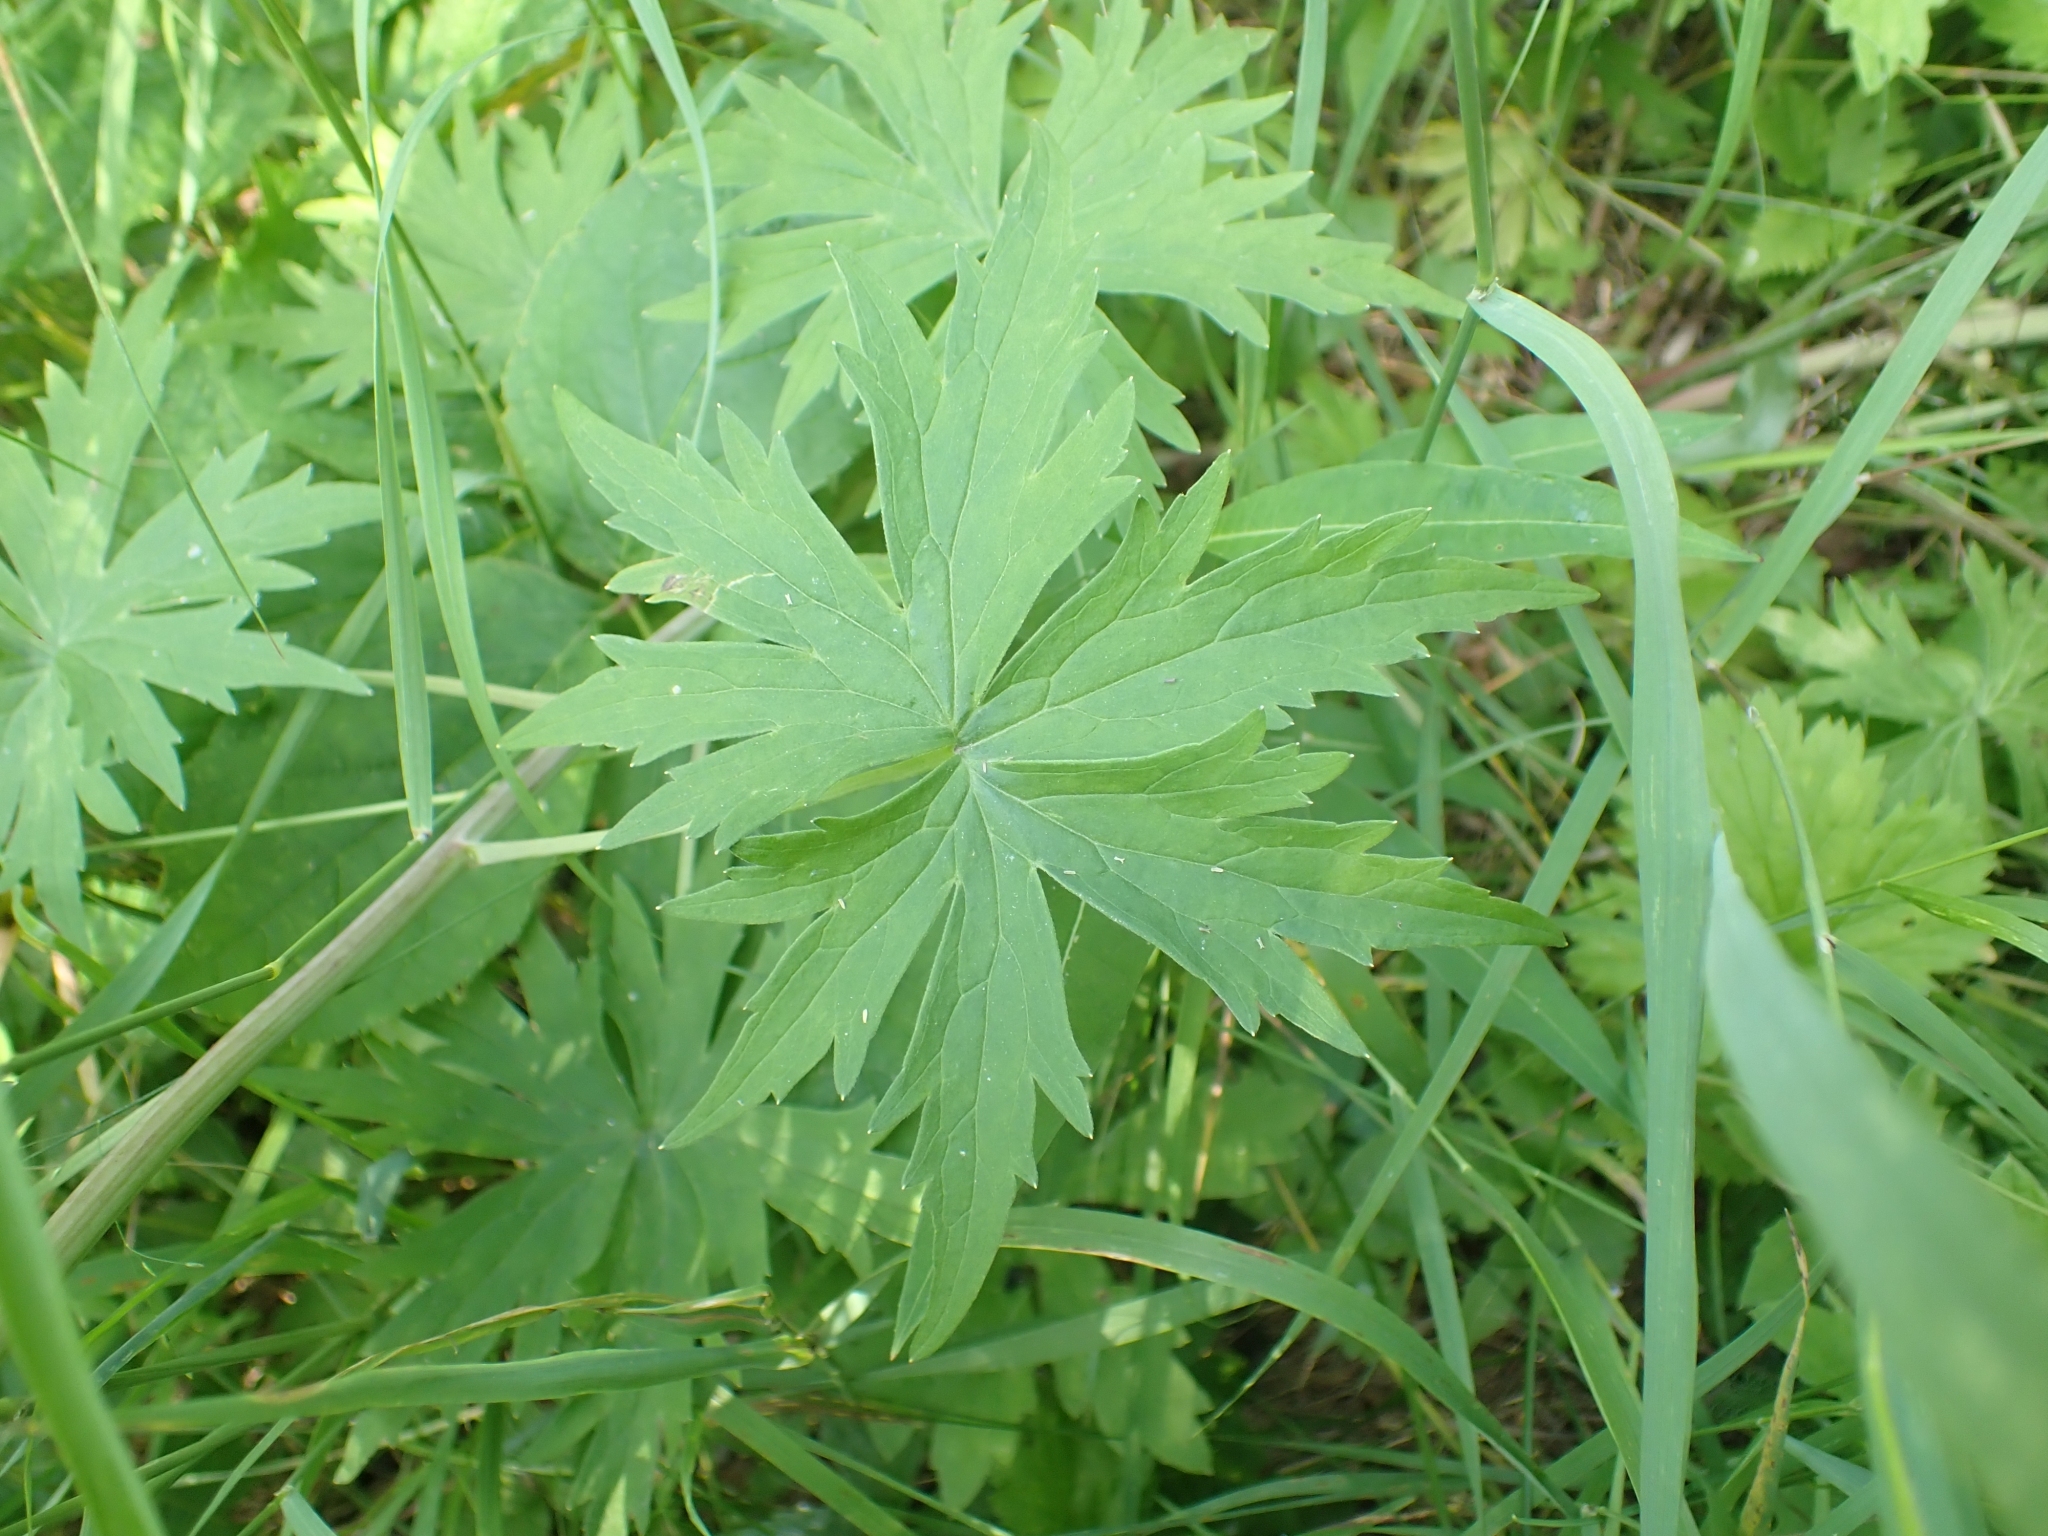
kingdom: Plantae
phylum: Tracheophyta
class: Magnoliopsida
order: Ranunculales
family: Ranunculaceae
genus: Delphinium
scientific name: Delphinium glaucum
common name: Brown's larkspur
